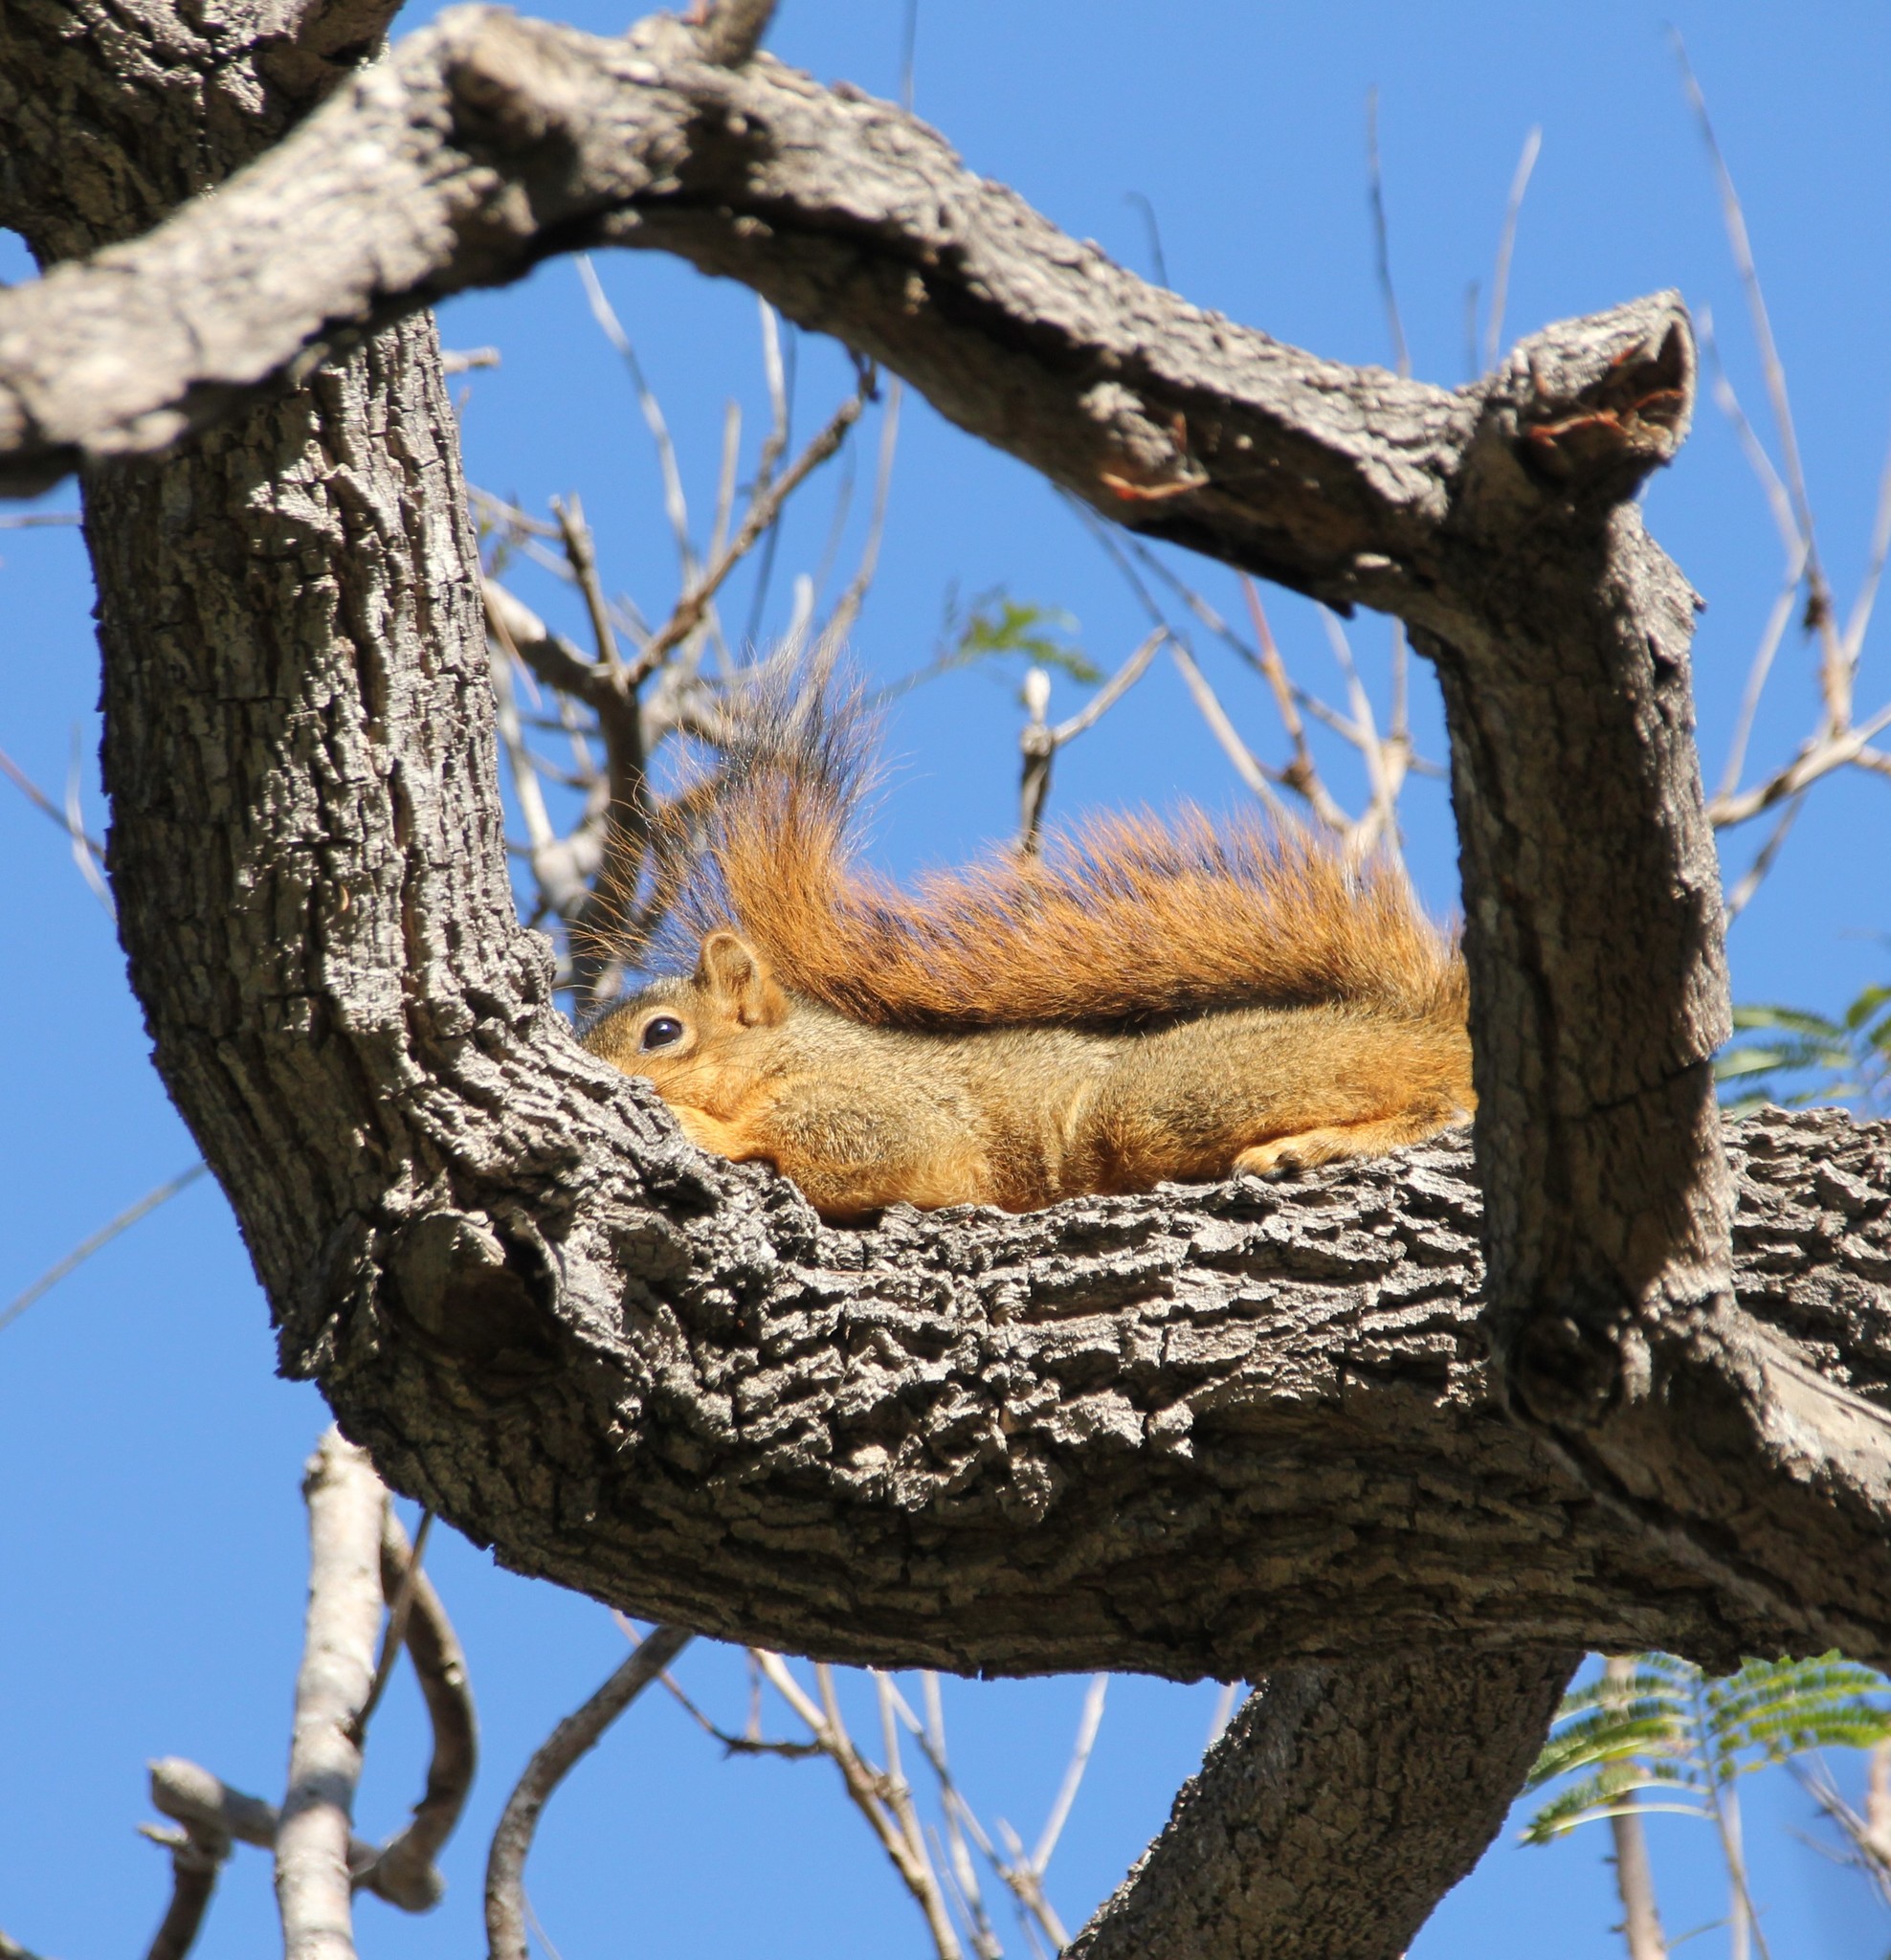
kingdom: Animalia
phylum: Chordata
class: Mammalia
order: Rodentia
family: Sciuridae
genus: Sciurus
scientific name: Sciurus niger
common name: Fox squirrel
